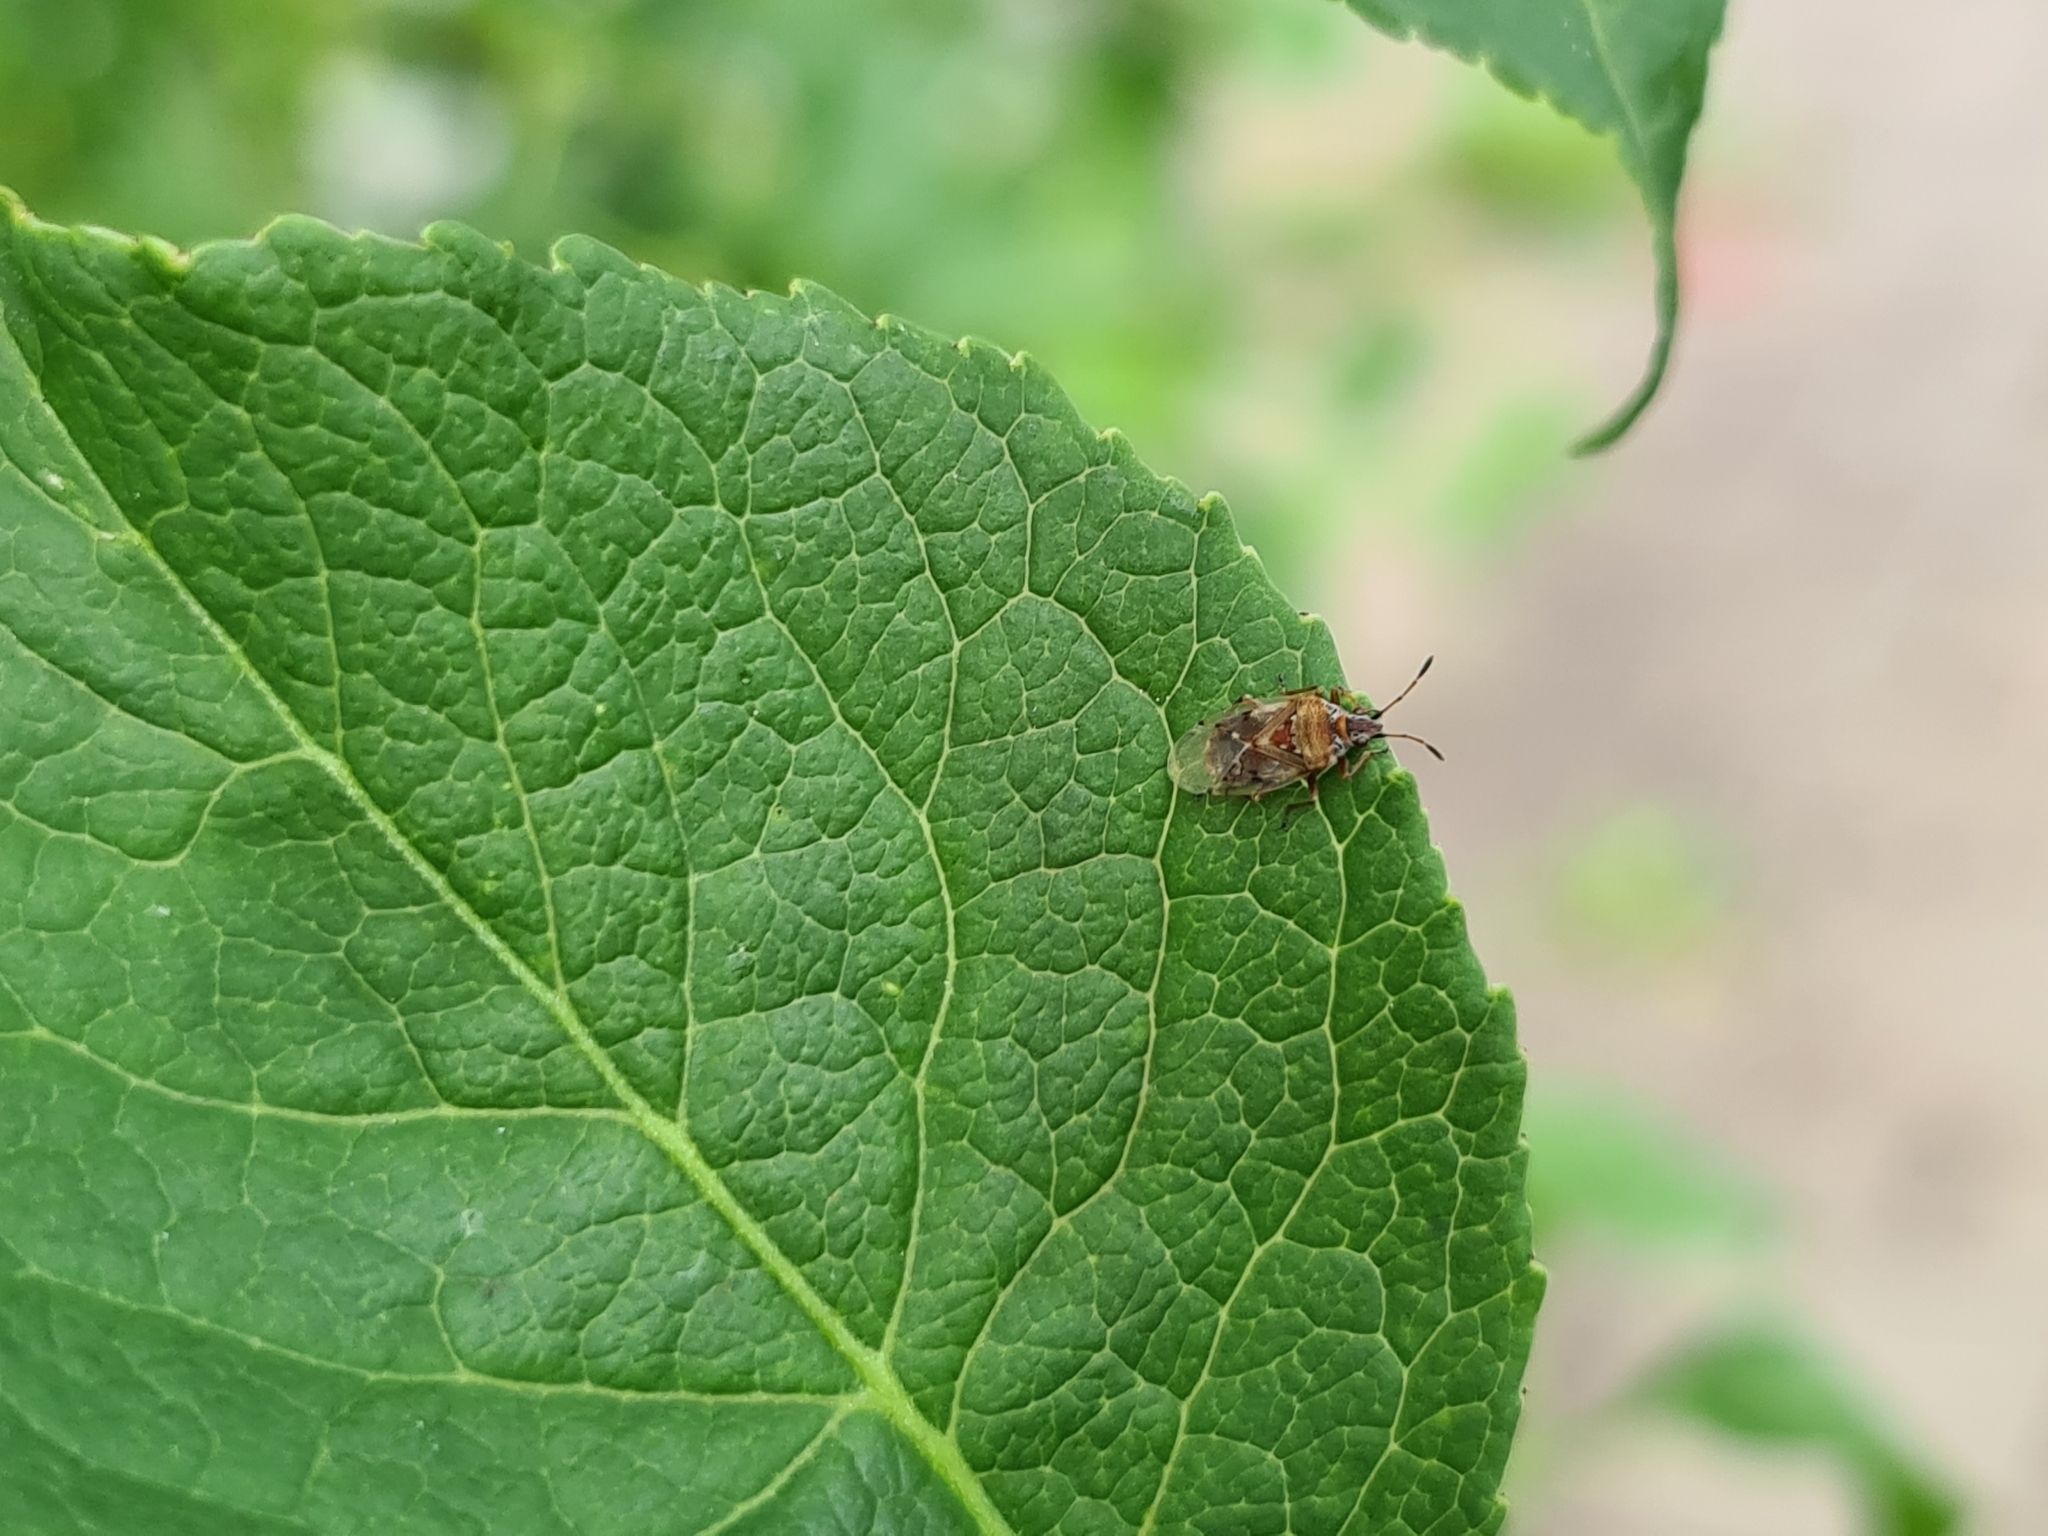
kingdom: Animalia
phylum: Arthropoda
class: Insecta
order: Hemiptera
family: Lygaeidae
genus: Kleidocerys
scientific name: Kleidocerys resedae
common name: Birch catkin bug
